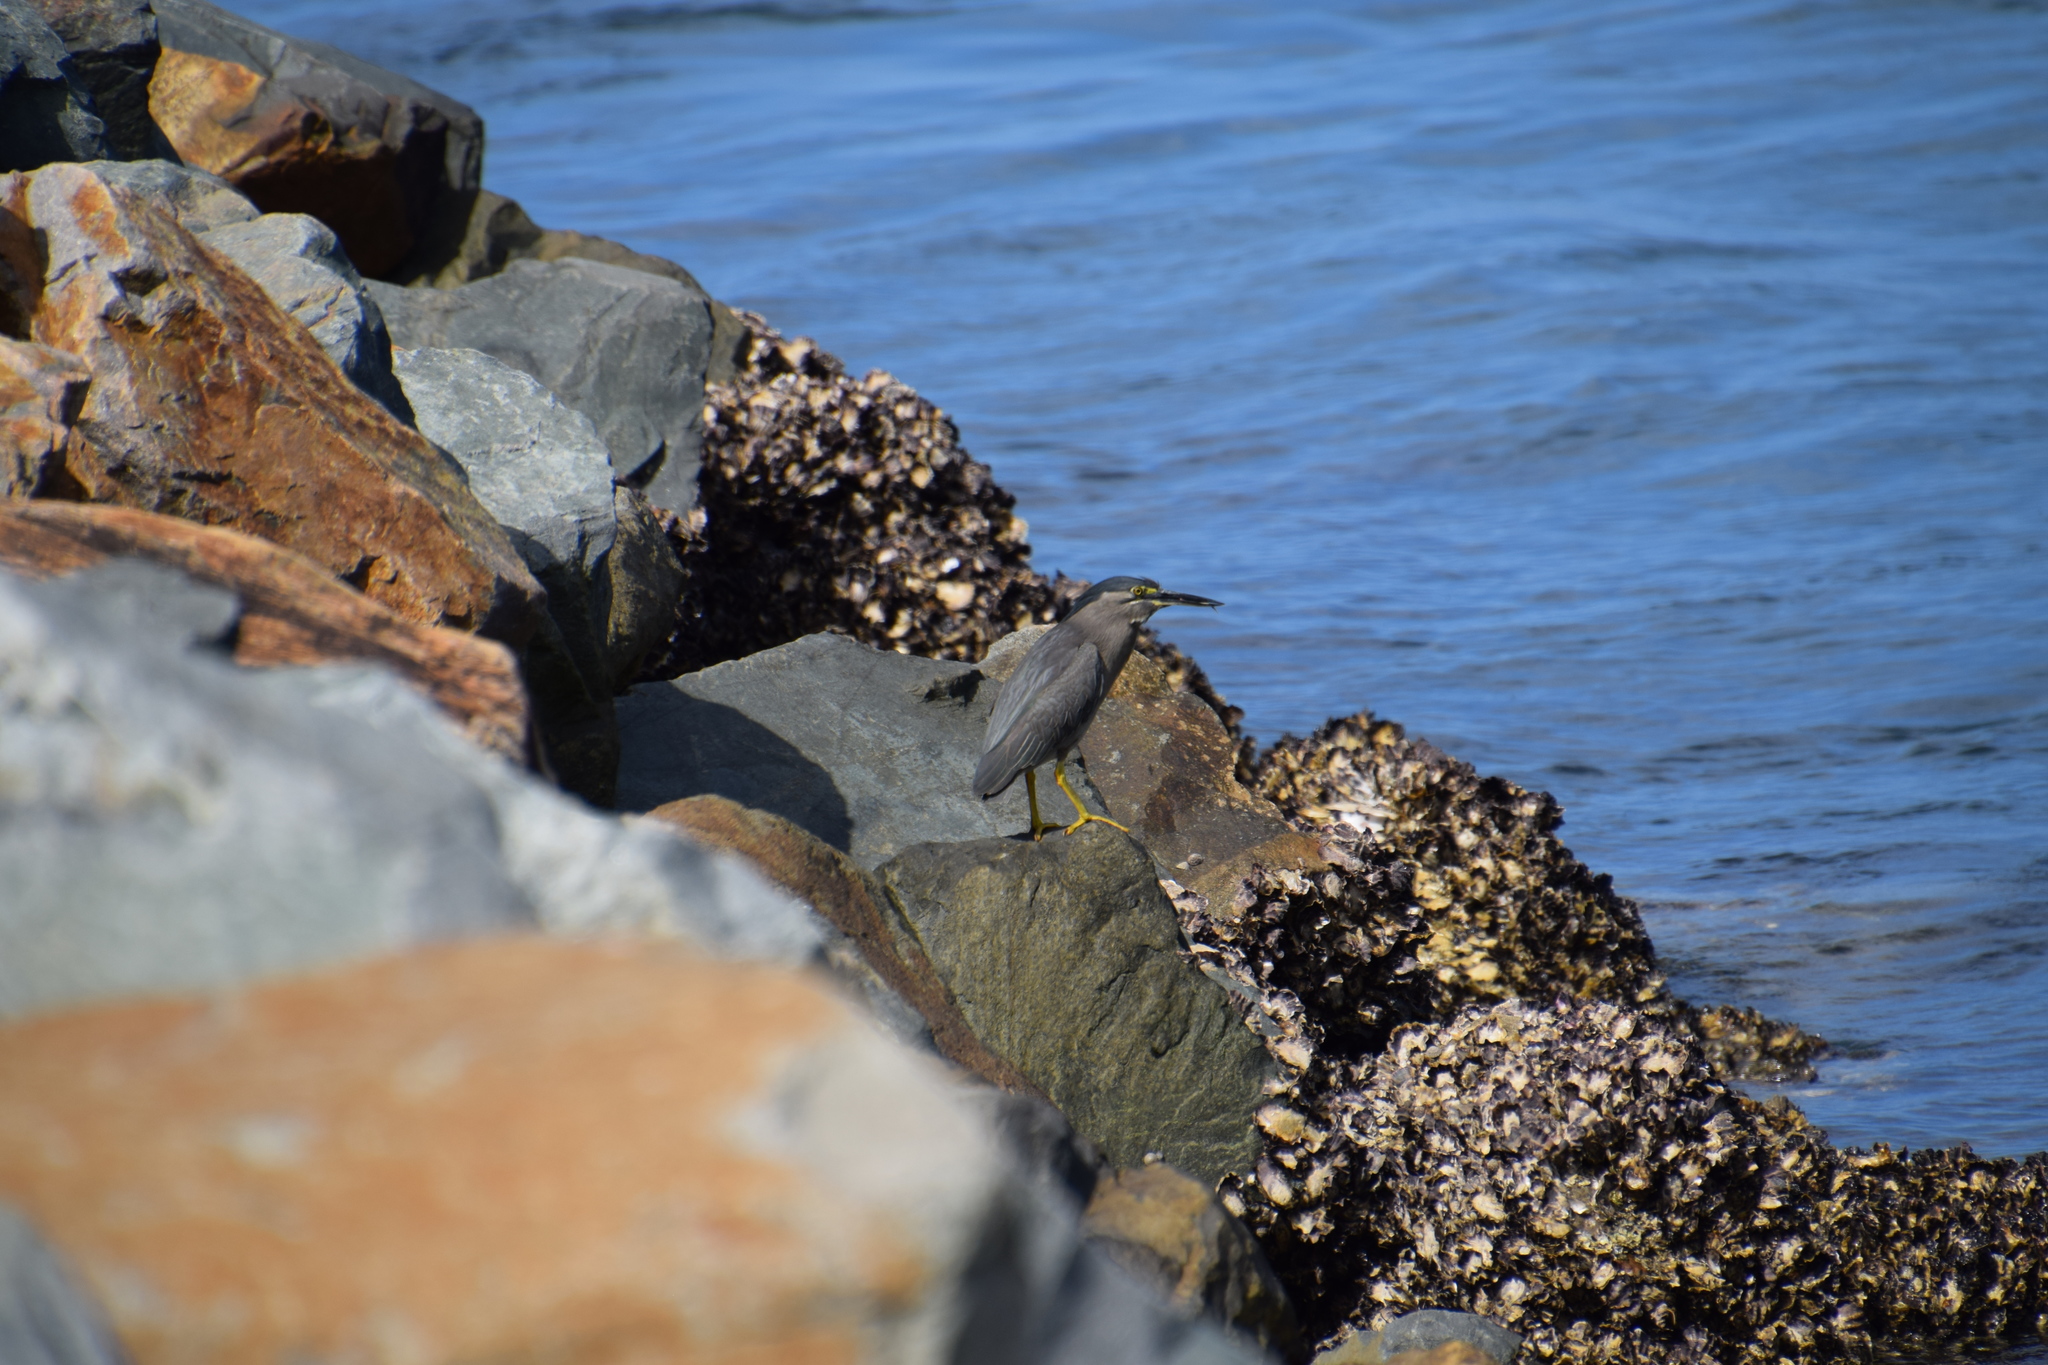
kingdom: Animalia
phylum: Chordata
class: Aves
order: Pelecaniformes
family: Ardeidae
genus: Butorides
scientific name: Butorides striata
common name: Striated heron
